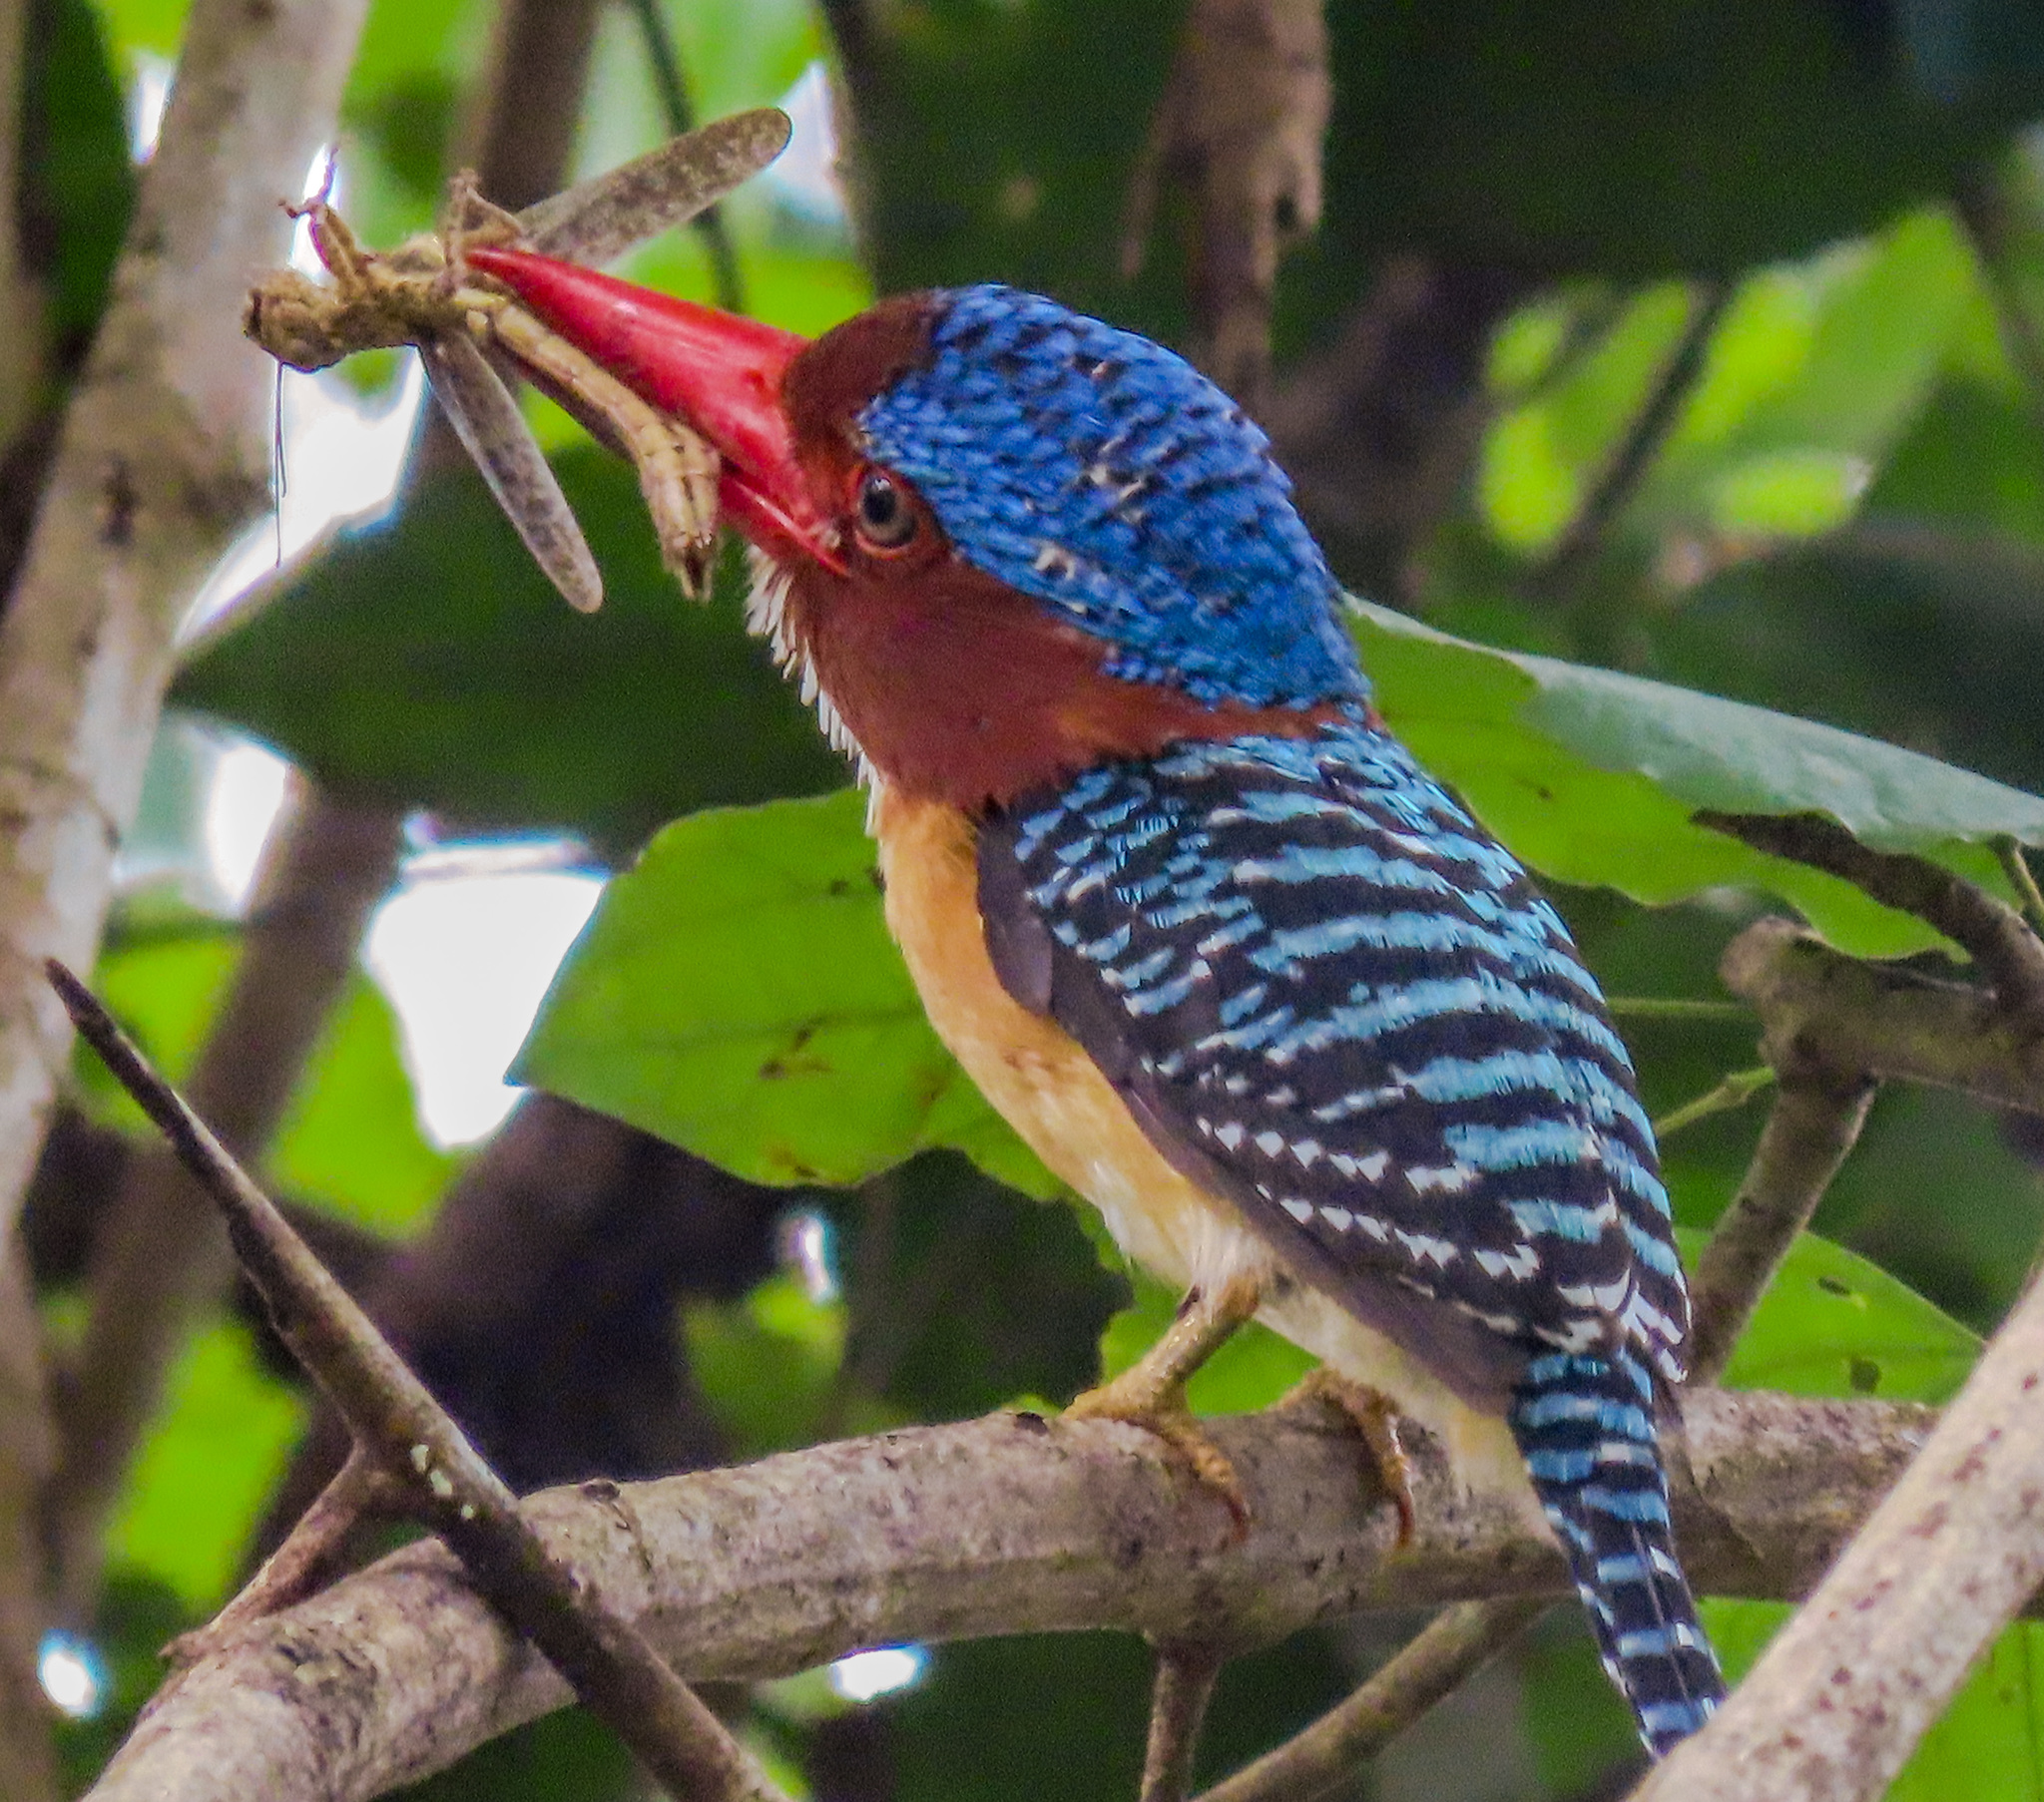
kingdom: Animalia
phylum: Chordata
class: Aves
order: Coraciiformes
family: Alcedinidae
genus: Lacedo
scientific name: Lacedo pulchella
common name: Banded kingfisher
